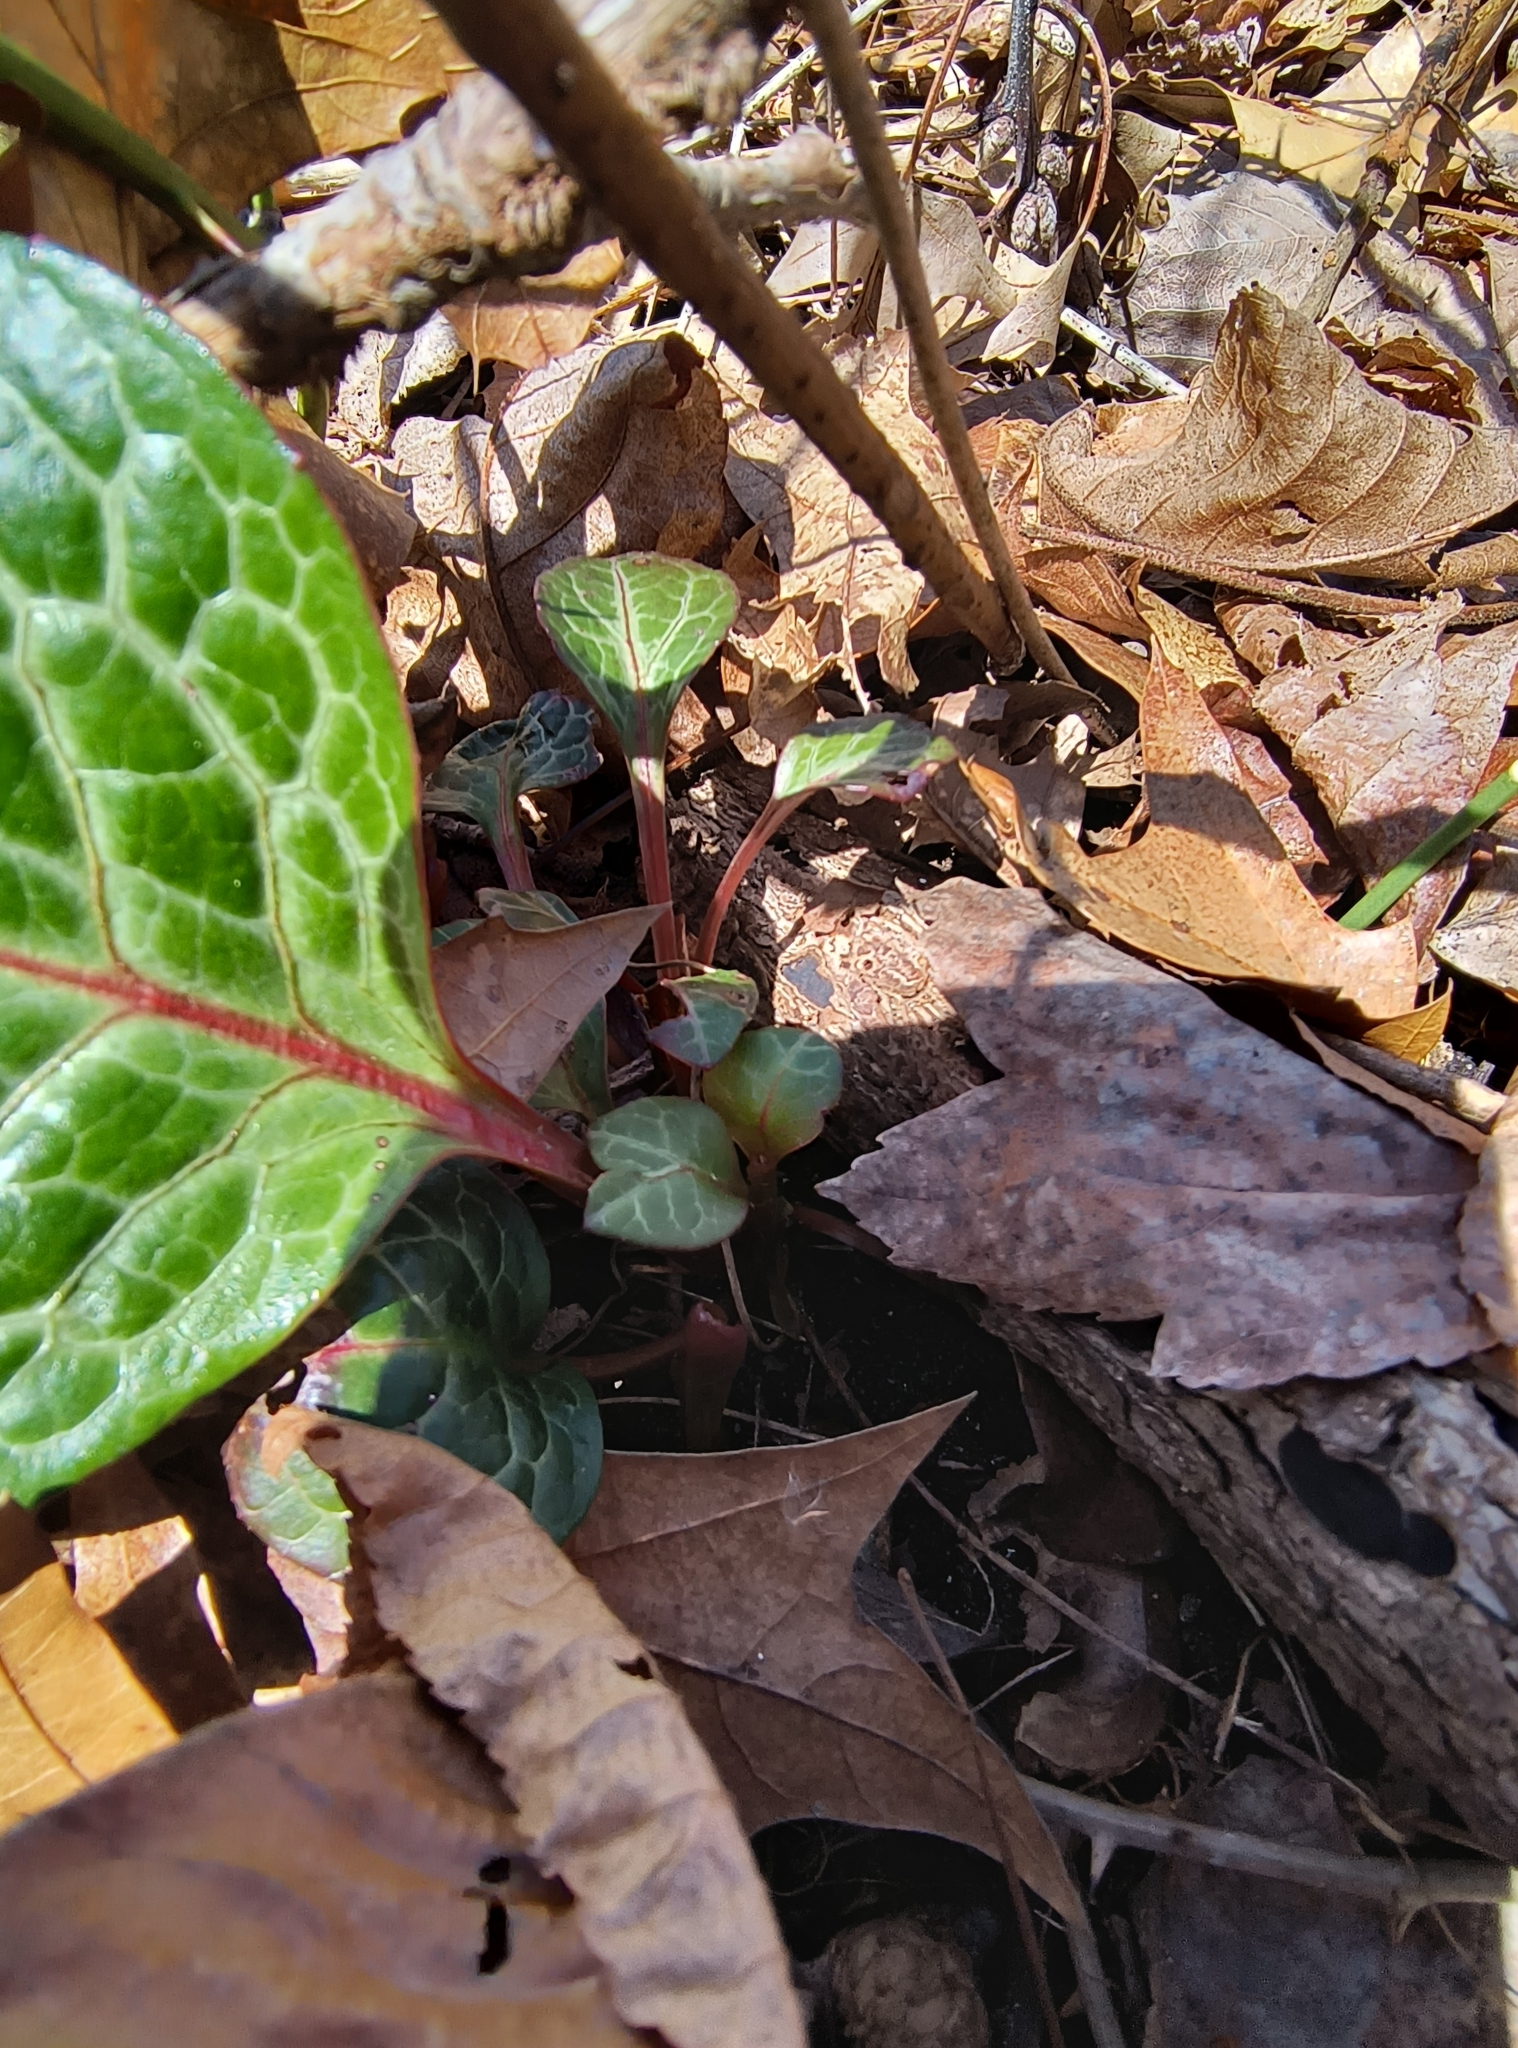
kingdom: Plantae
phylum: Tracheophyta
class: Magnoliopsida
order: Ericales
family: Ericaceae
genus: Pyrola
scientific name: Pyrola americana
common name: American wintergreen
